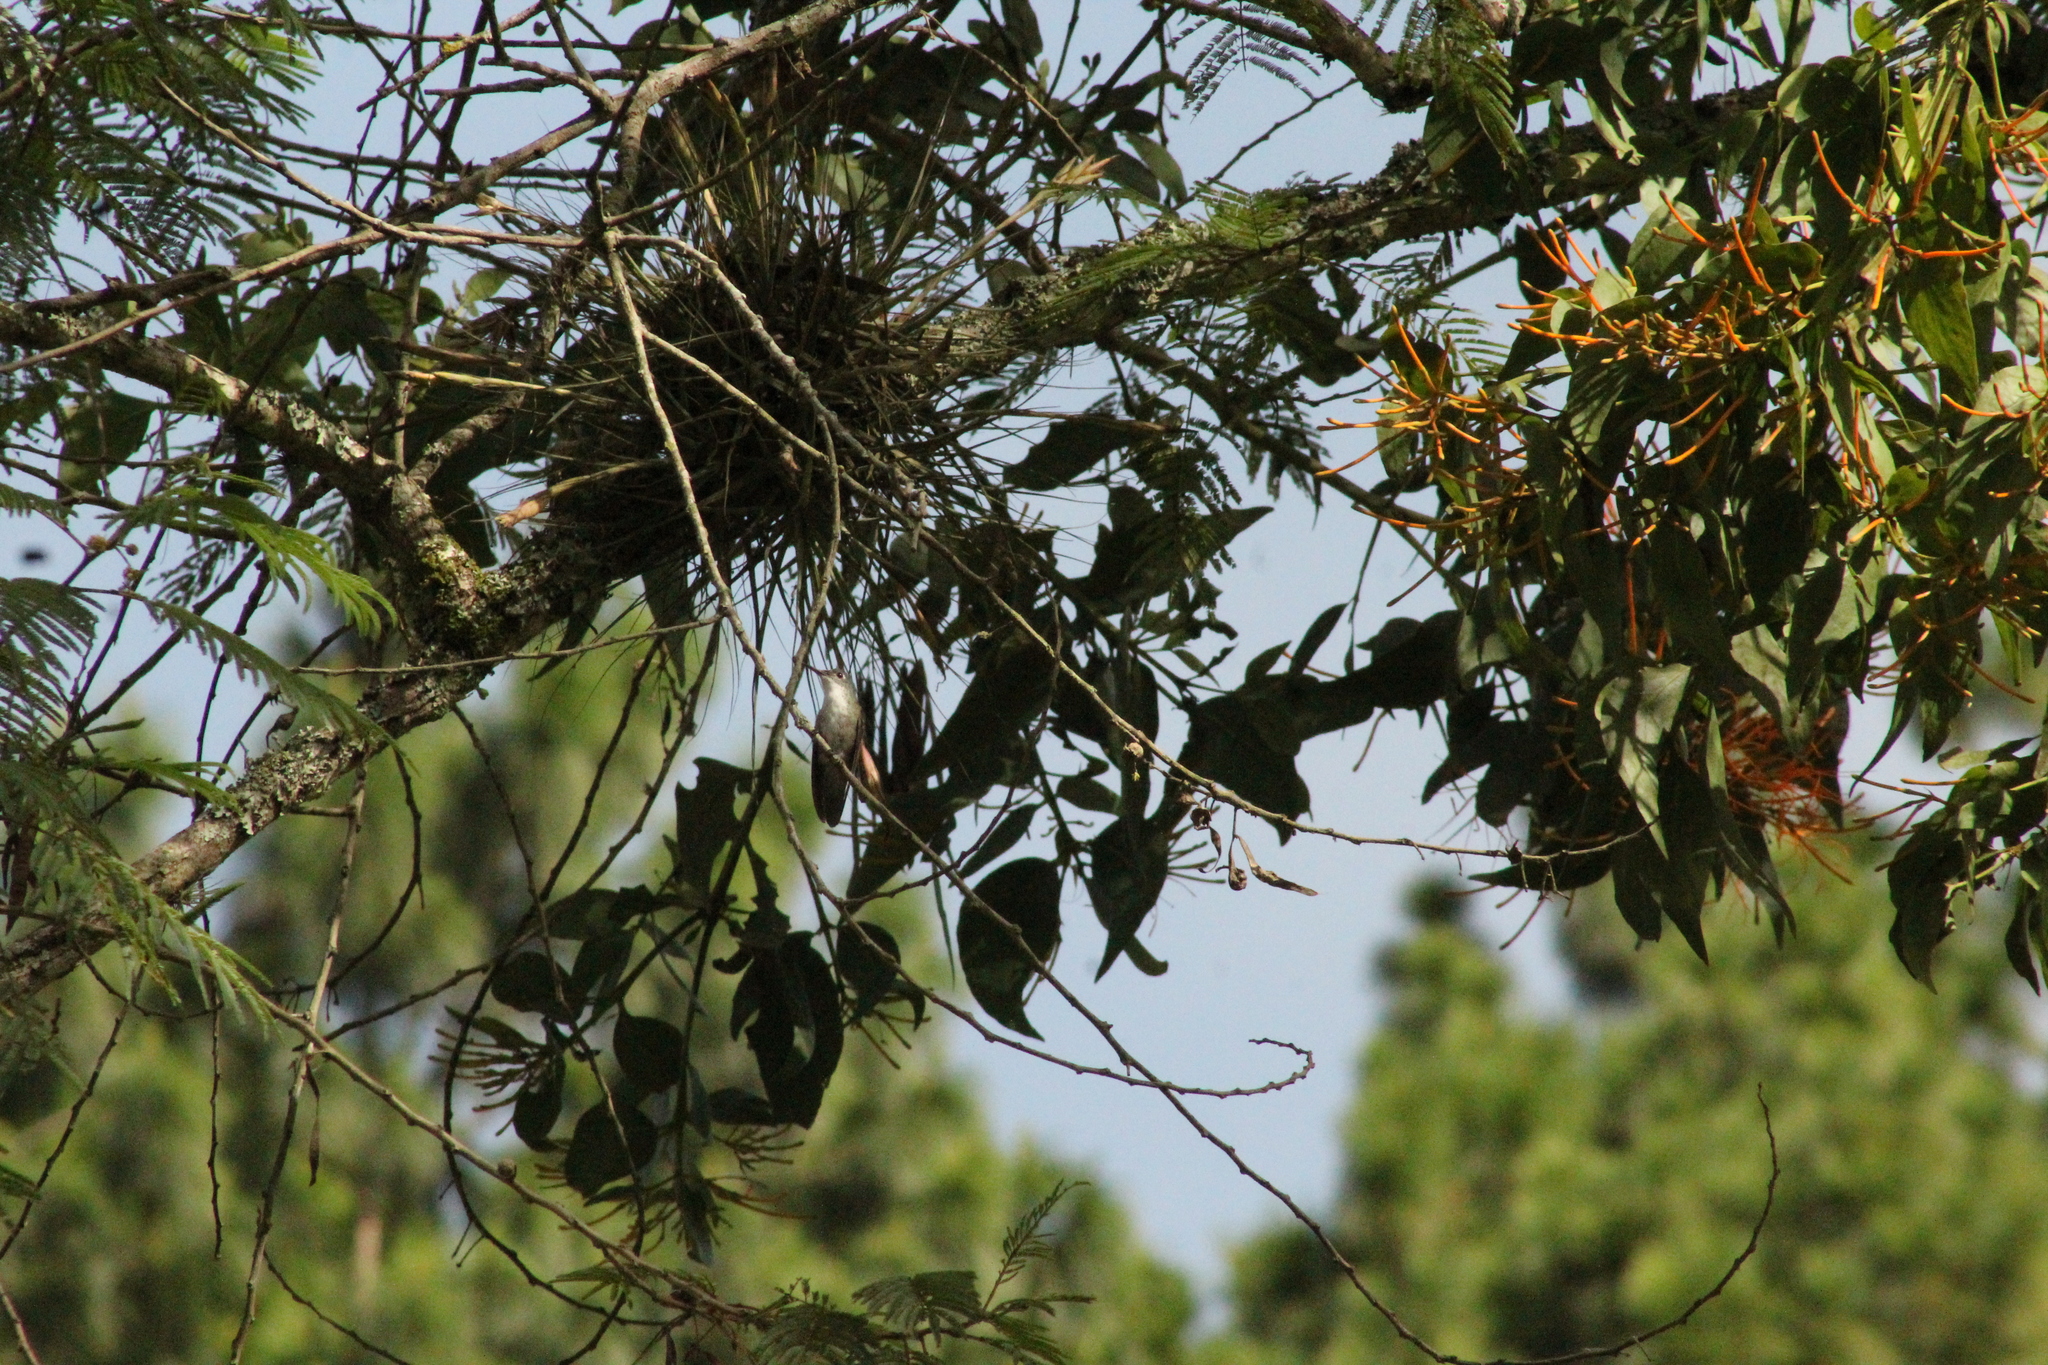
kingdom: Animalia
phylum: Chordata
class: Aves
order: Apodiformes
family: Trochilidae
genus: Saucerottia
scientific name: Saucerottia cyanocephala
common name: Azure-crowned hummingbird
